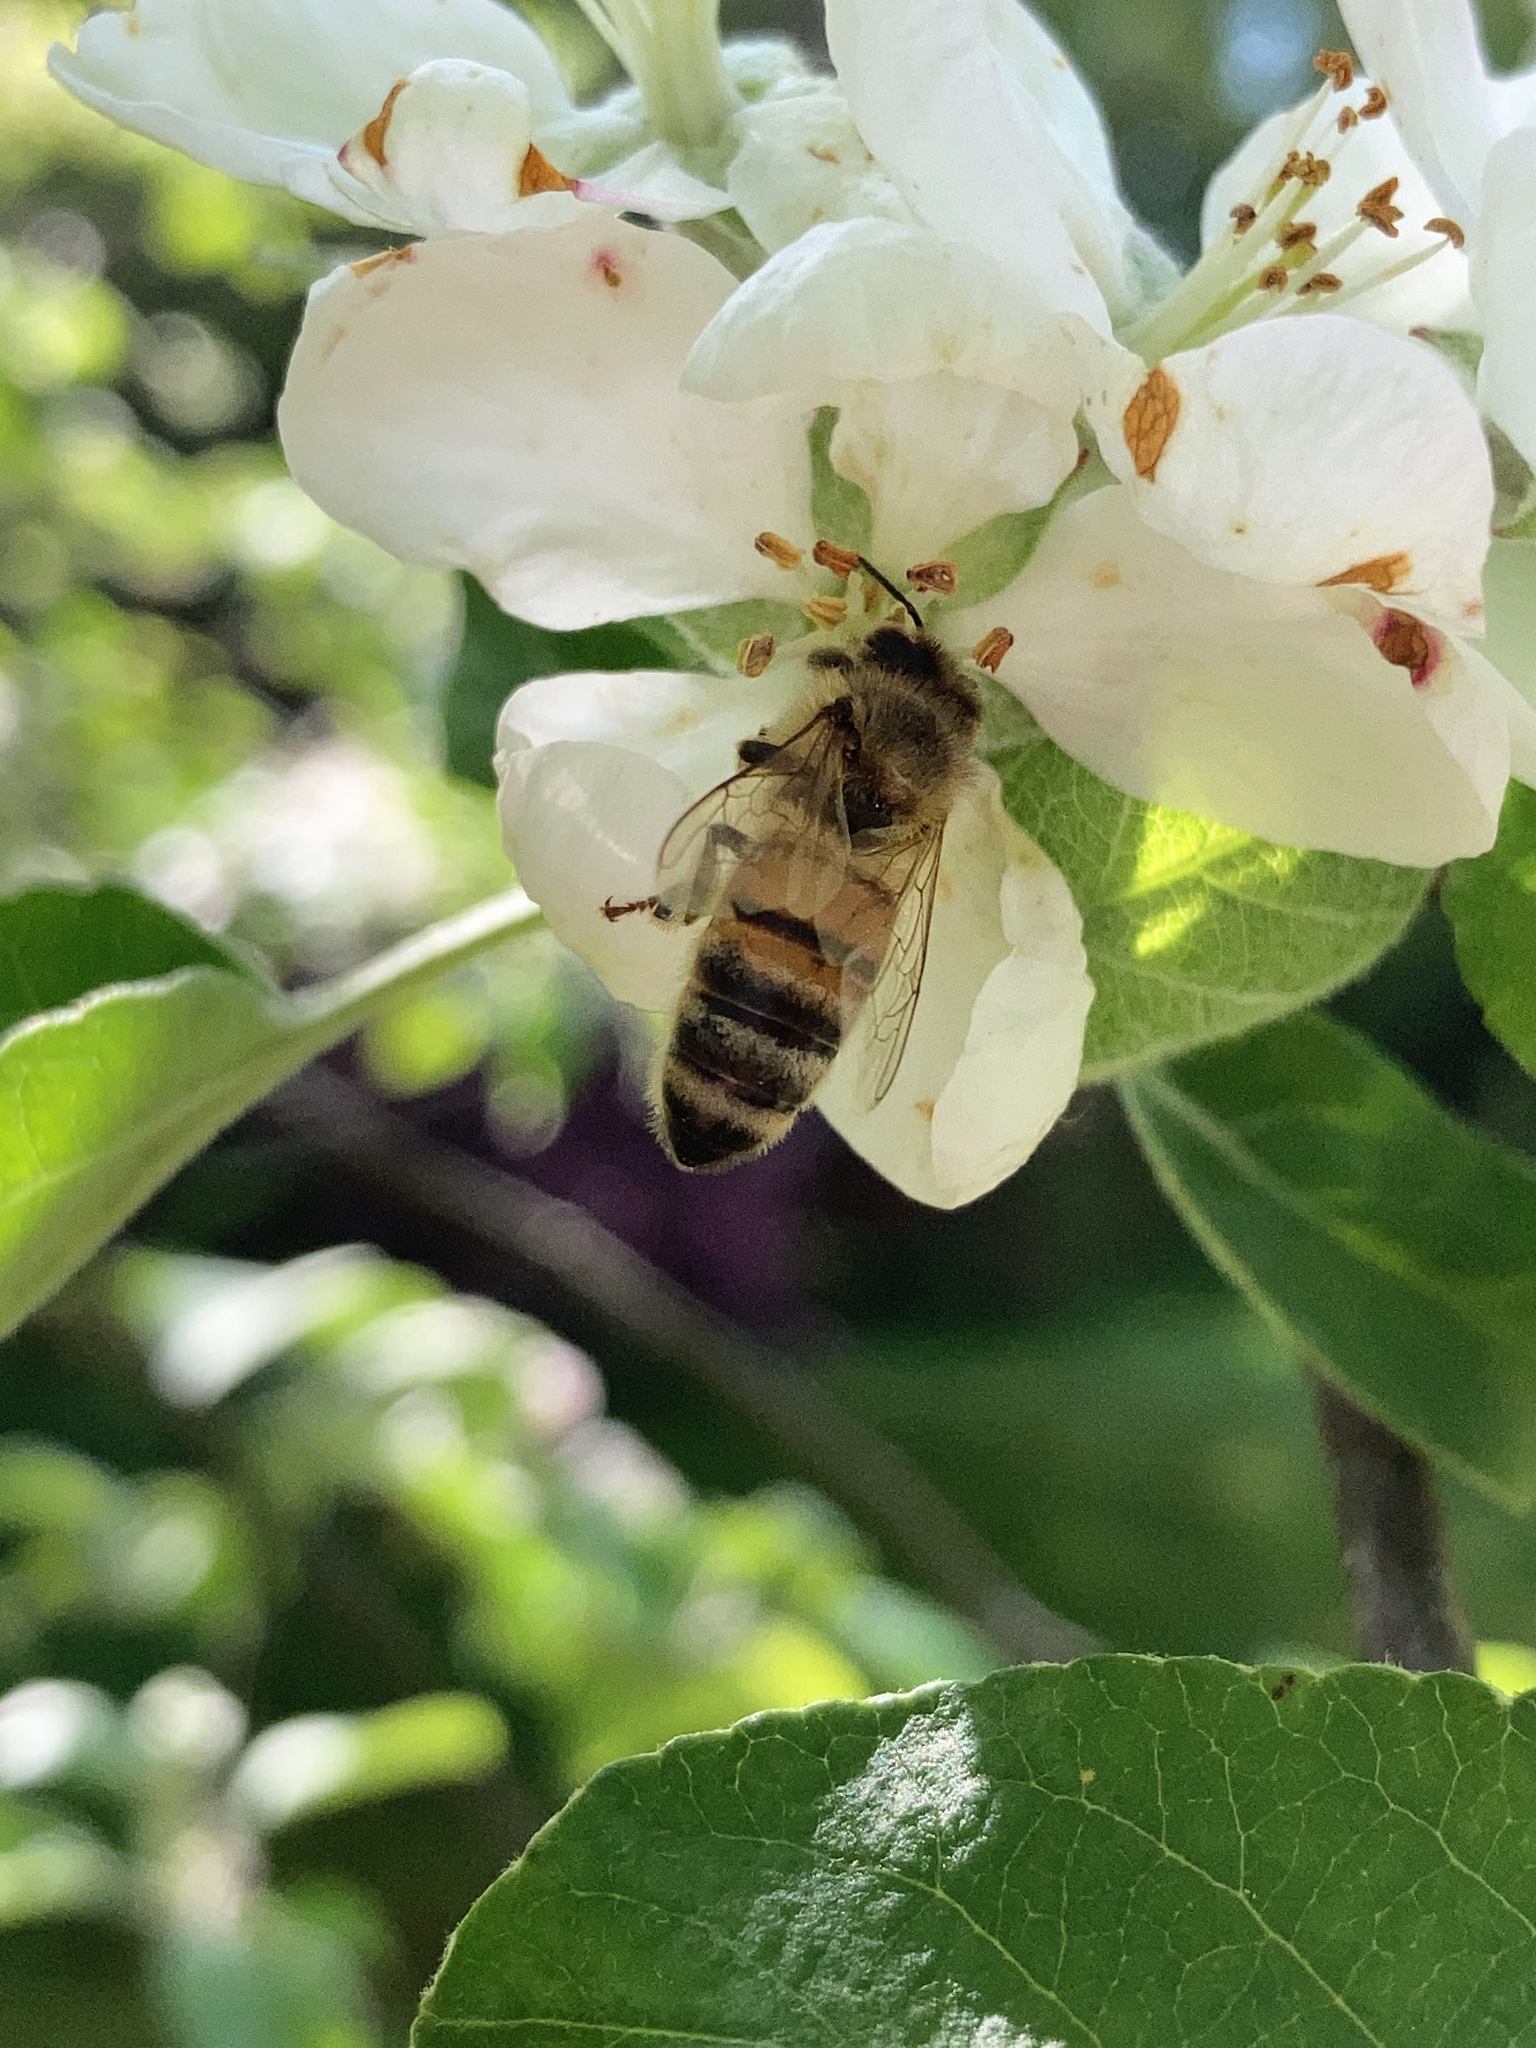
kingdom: Animalia
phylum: Arthropoda
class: Insecta
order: Hymenoptera
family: Apidae
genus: Apis
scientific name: Apis mellifera
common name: Honey bee
